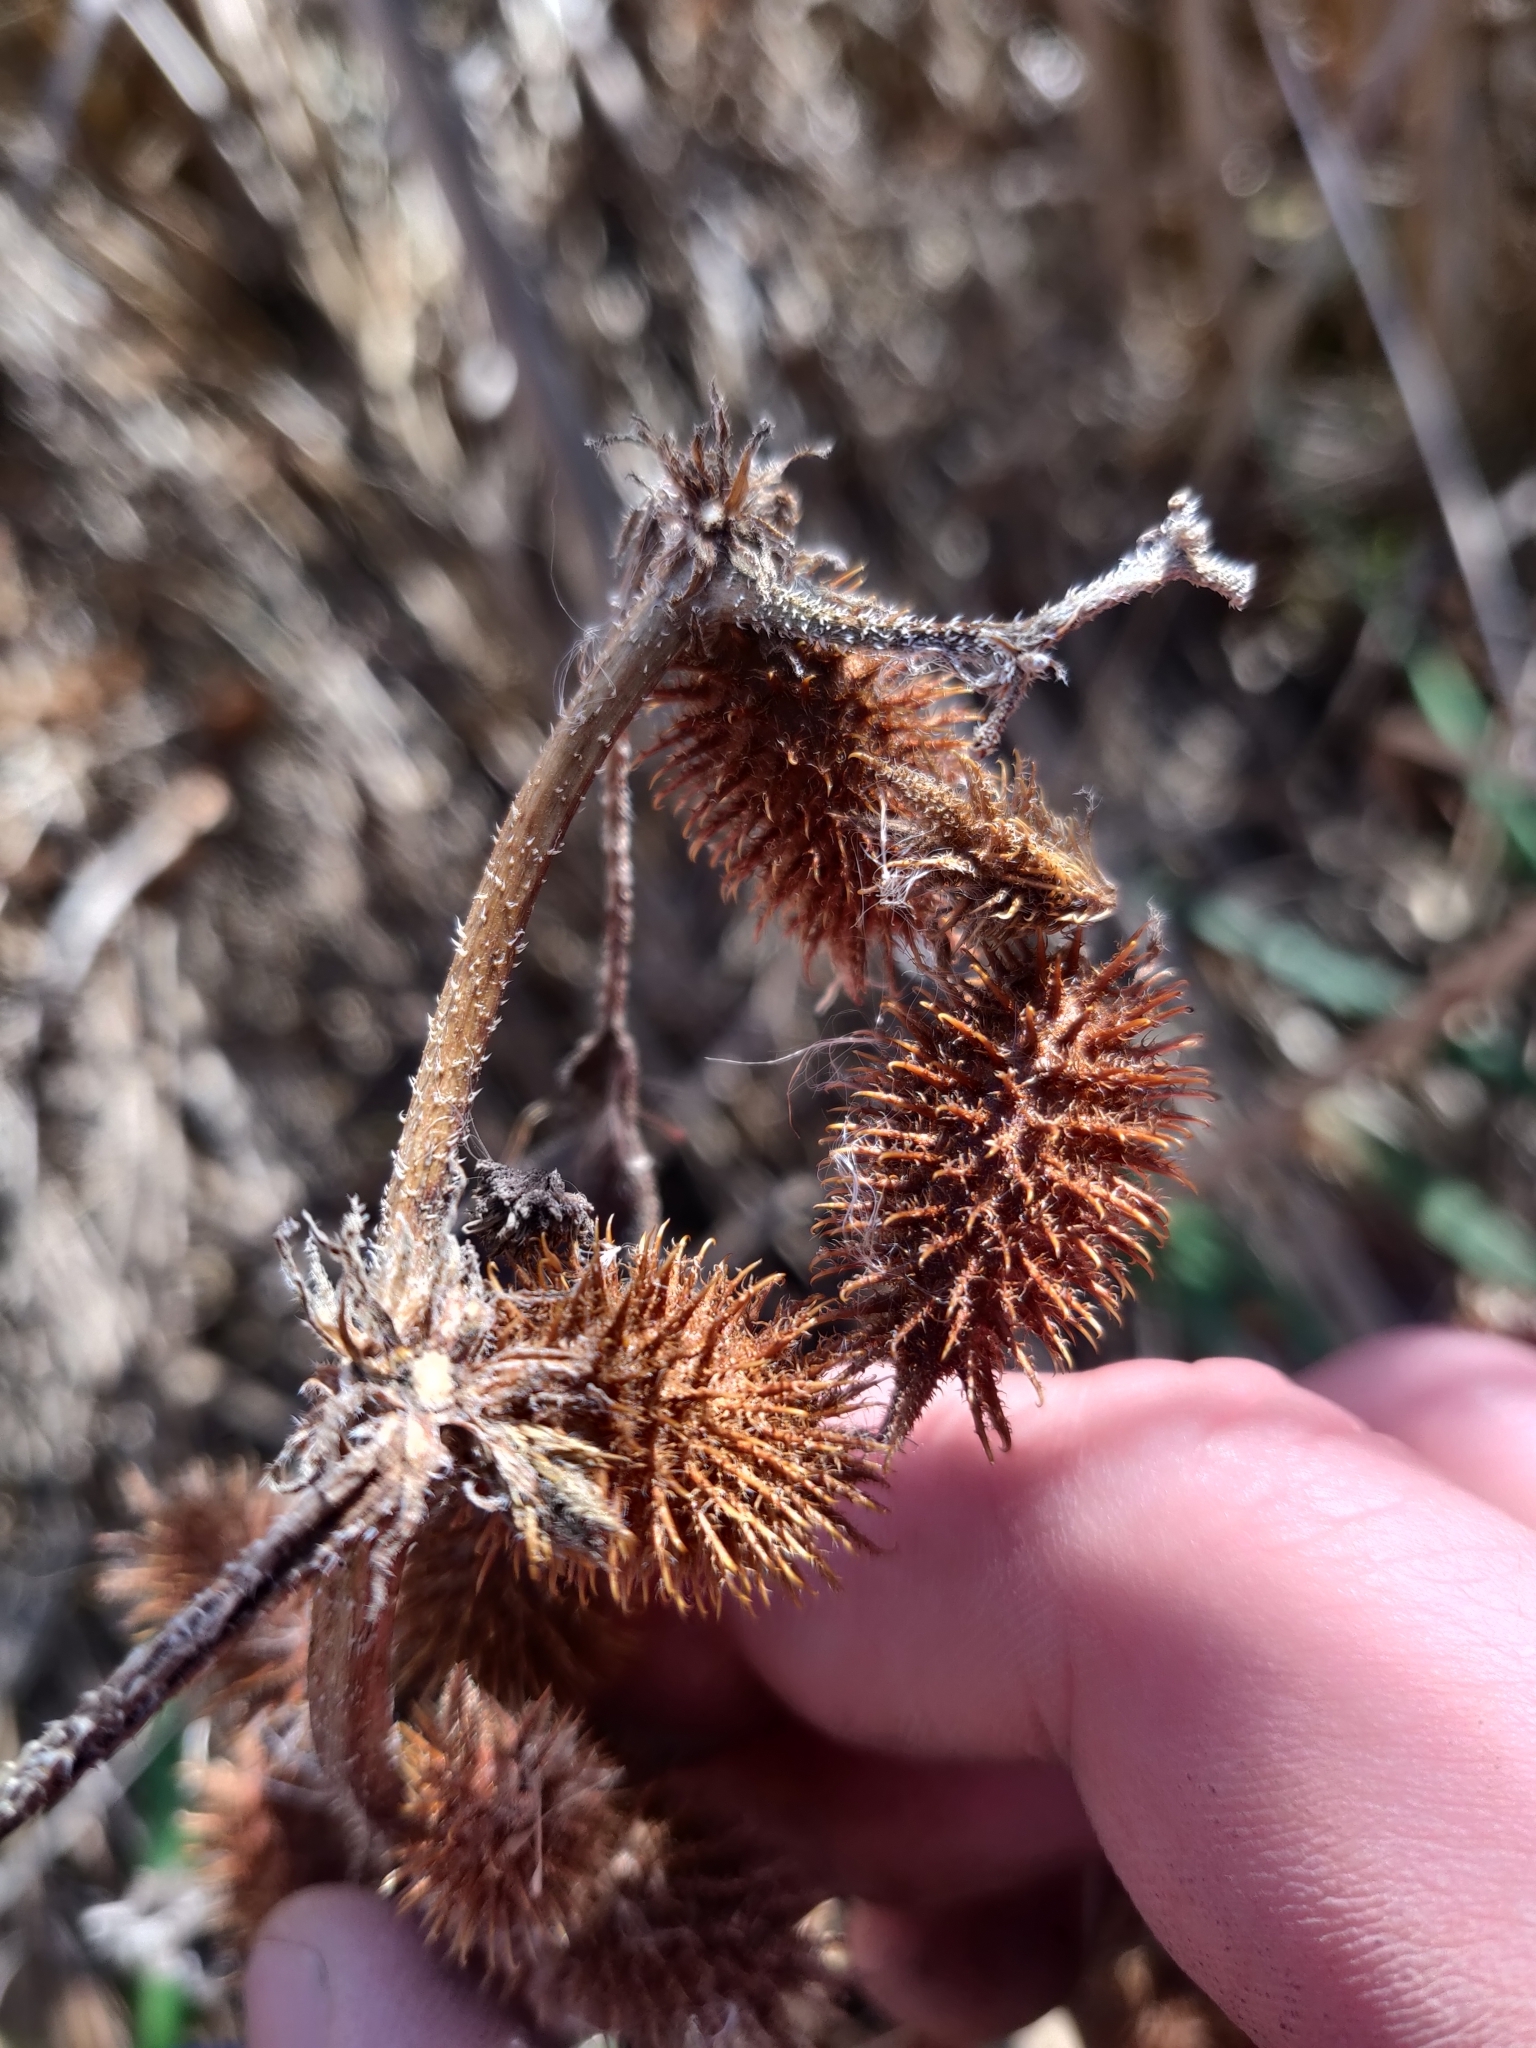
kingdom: Plantae
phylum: Tracheophyta
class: Magnoliopsida
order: Asterales
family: Asteraceae
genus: Xanthium
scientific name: Xanthium strumarium
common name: Rough cocklebur
